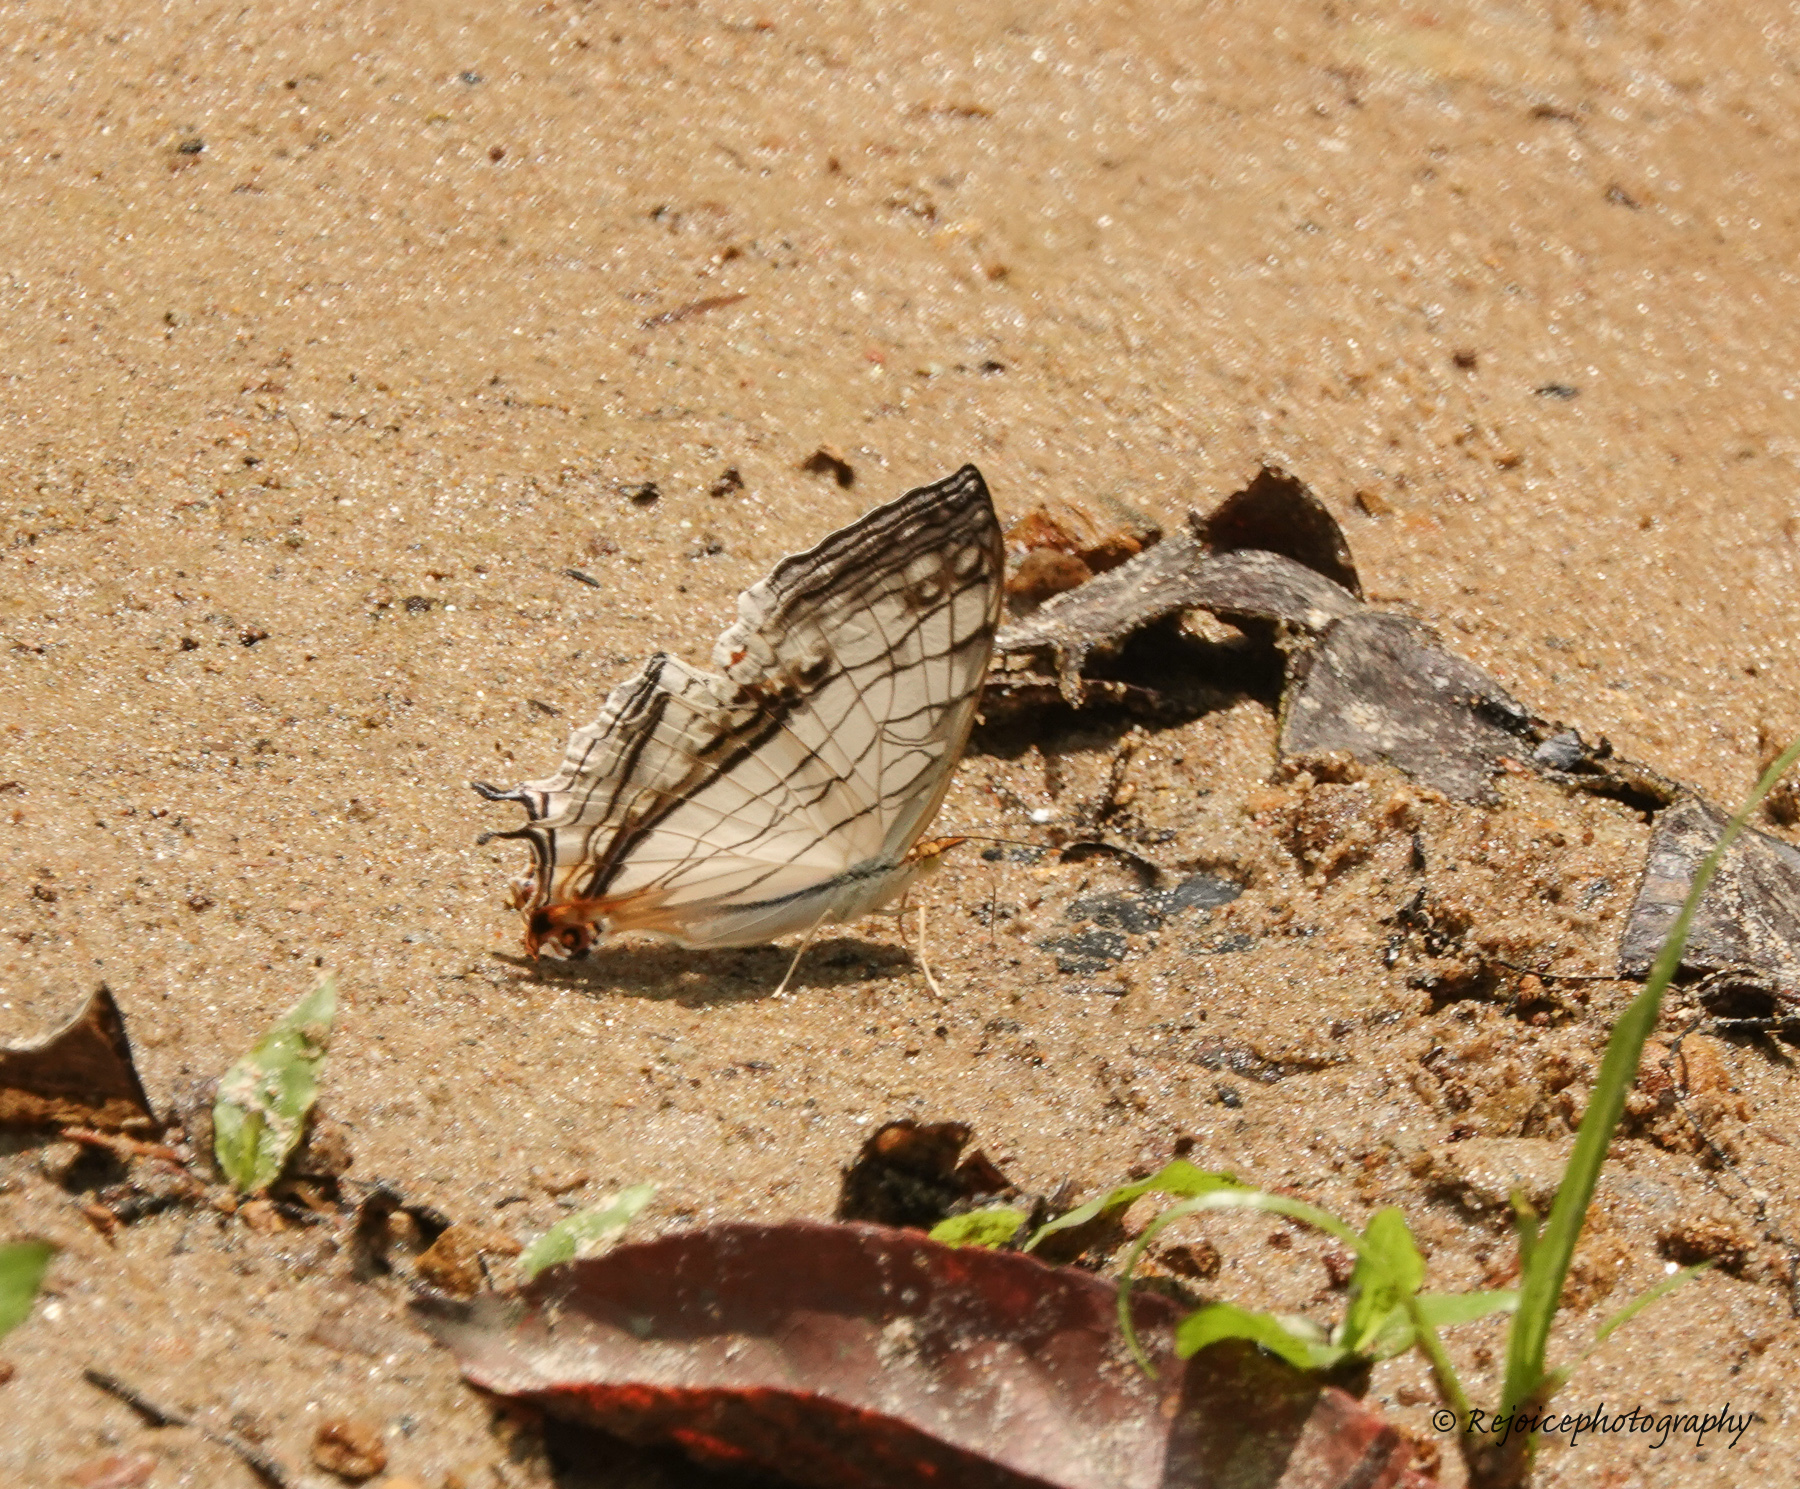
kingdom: Animalia
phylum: Arthropoda
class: Insecta
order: Lepidoptera
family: Nymphalidae
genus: Cyrestis
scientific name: Cyrestis thyodamas
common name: Common mapwing
